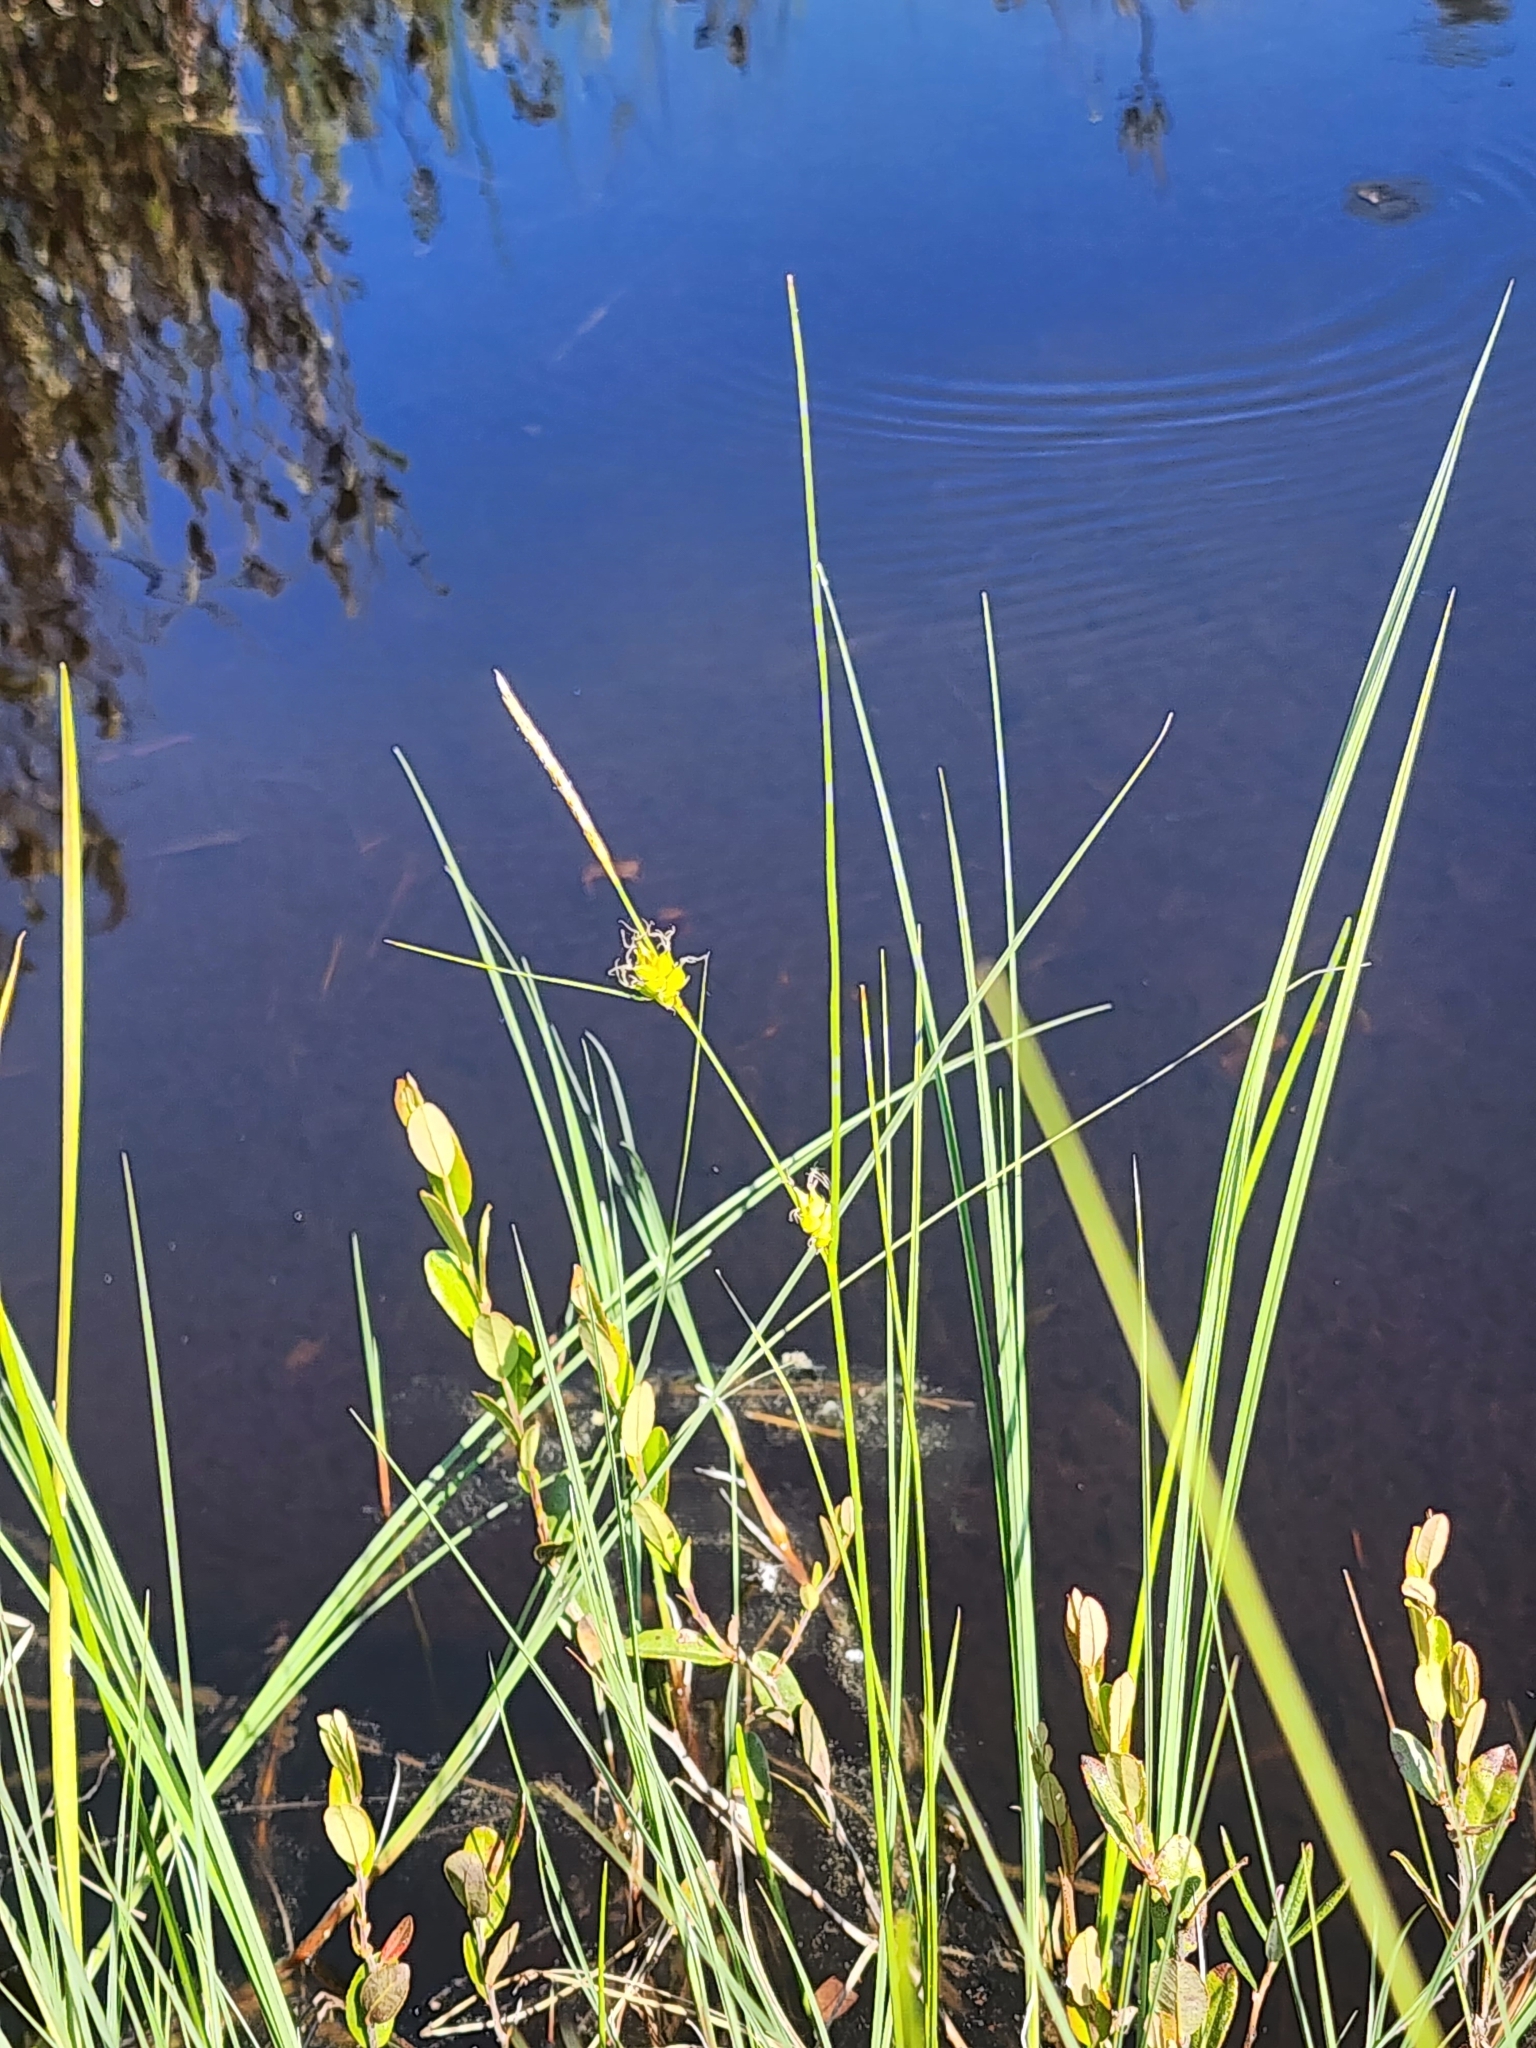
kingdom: Plantae
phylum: Tracheophyta
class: Liliopsida
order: Poales
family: Cyperaceae
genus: Carex
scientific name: Carex oligosperma
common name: Few-seed sedge
